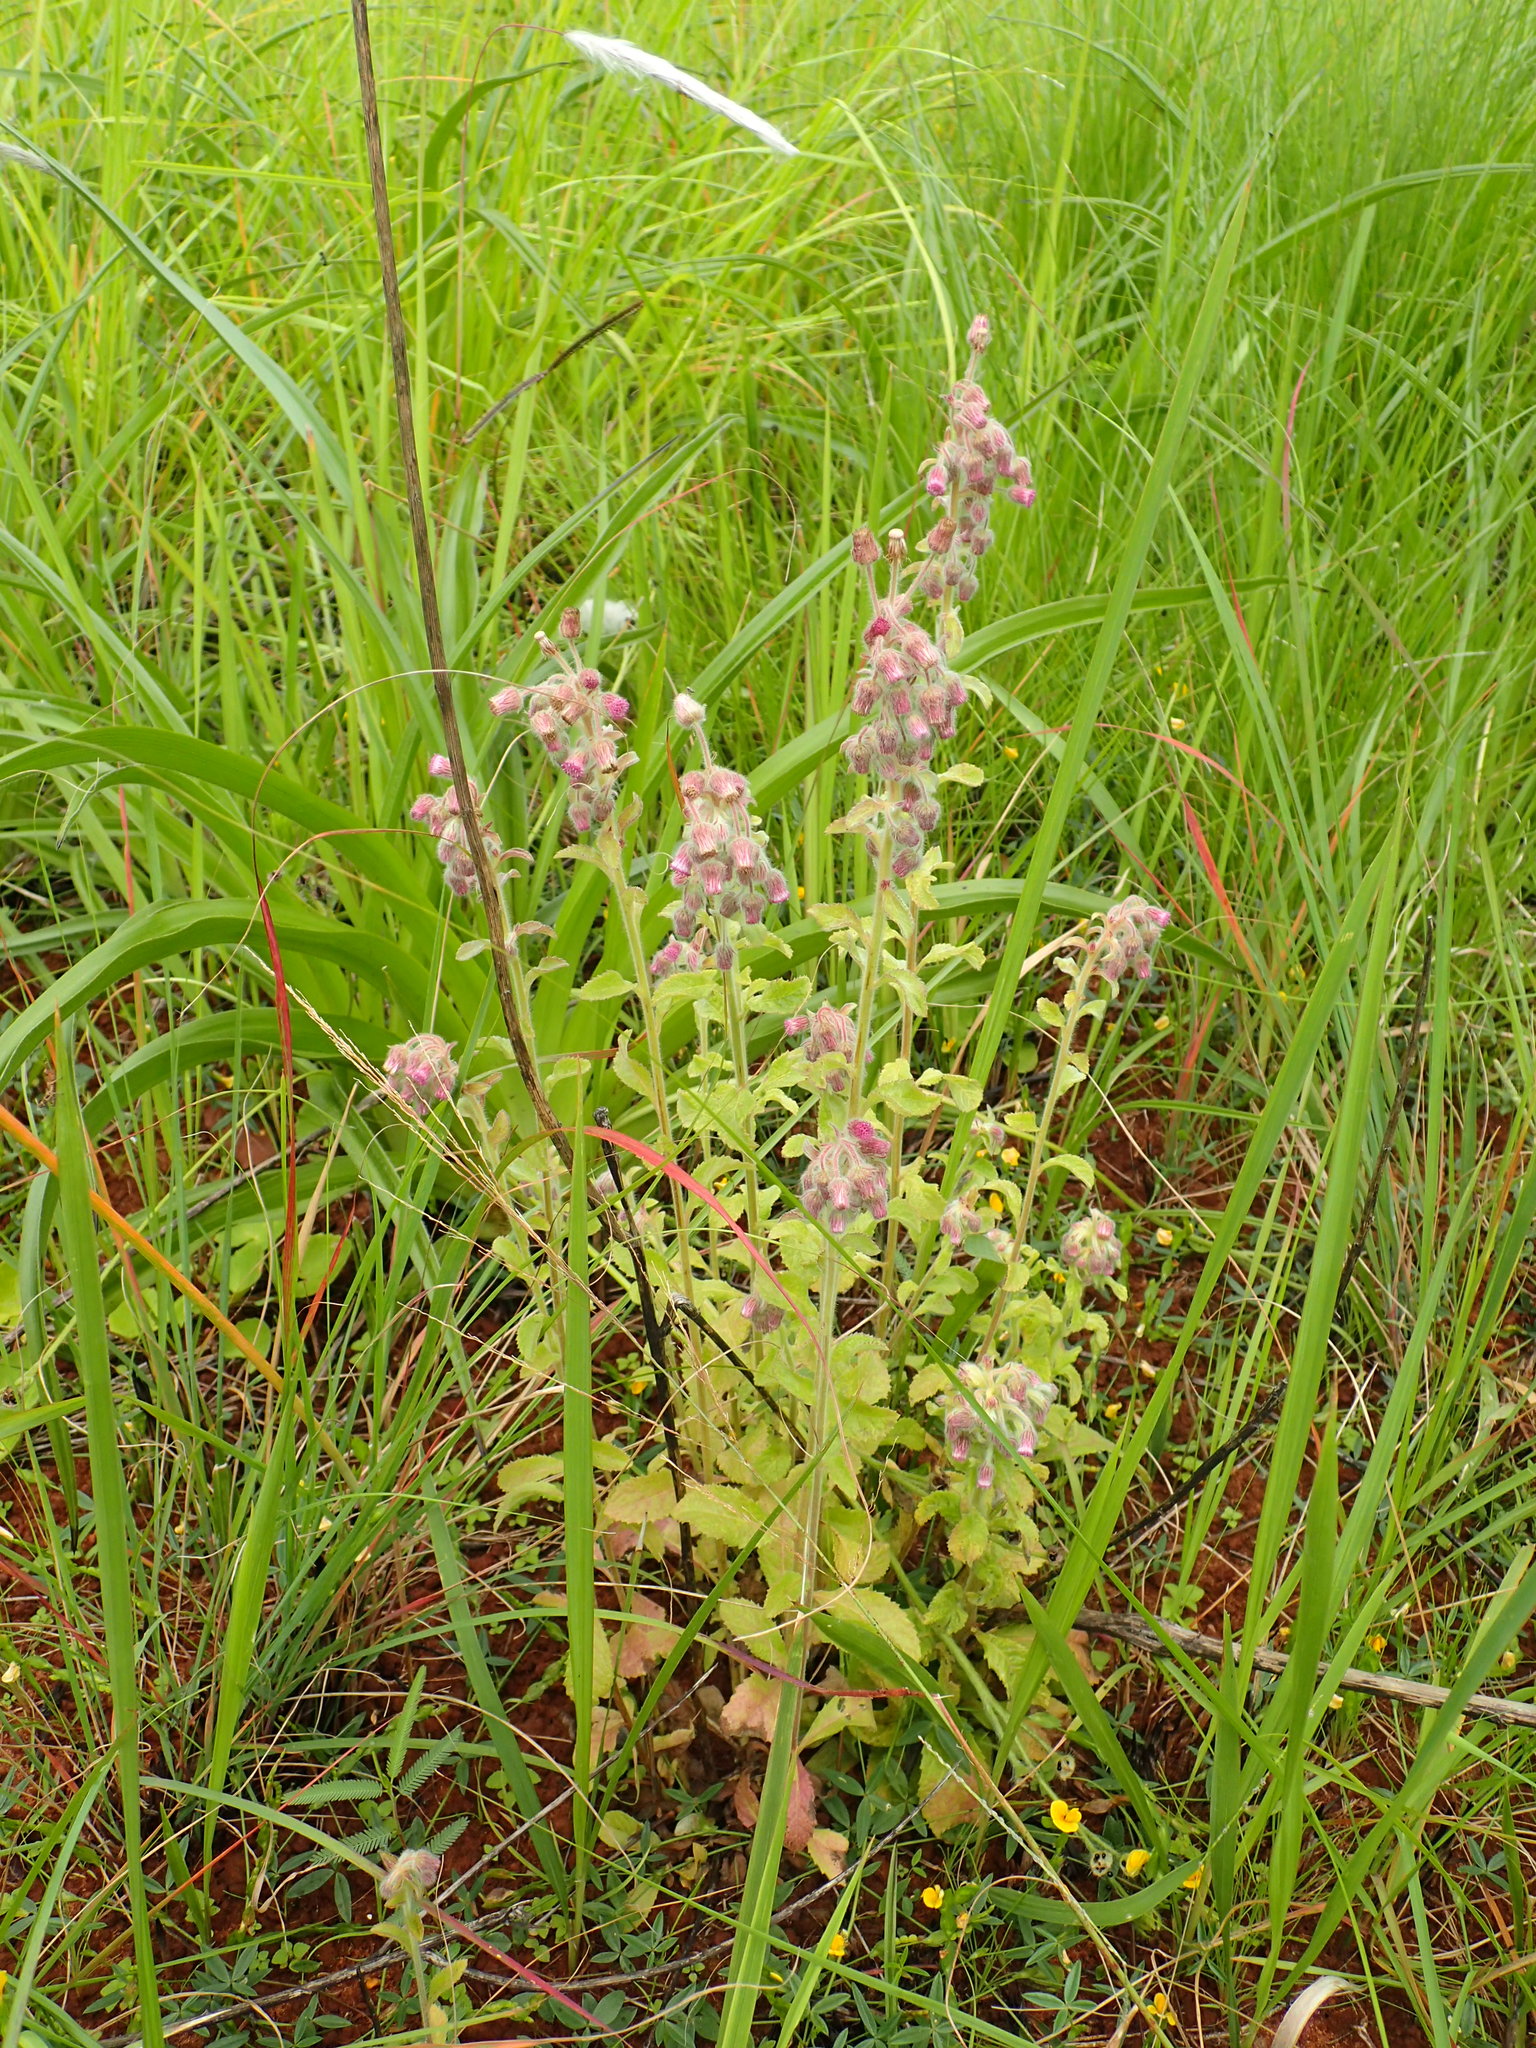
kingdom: Plantae
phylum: Tracheophyta
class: Magnoliopsida
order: Asterales
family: Asteraceae
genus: Blumea
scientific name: Blumea axillaris
